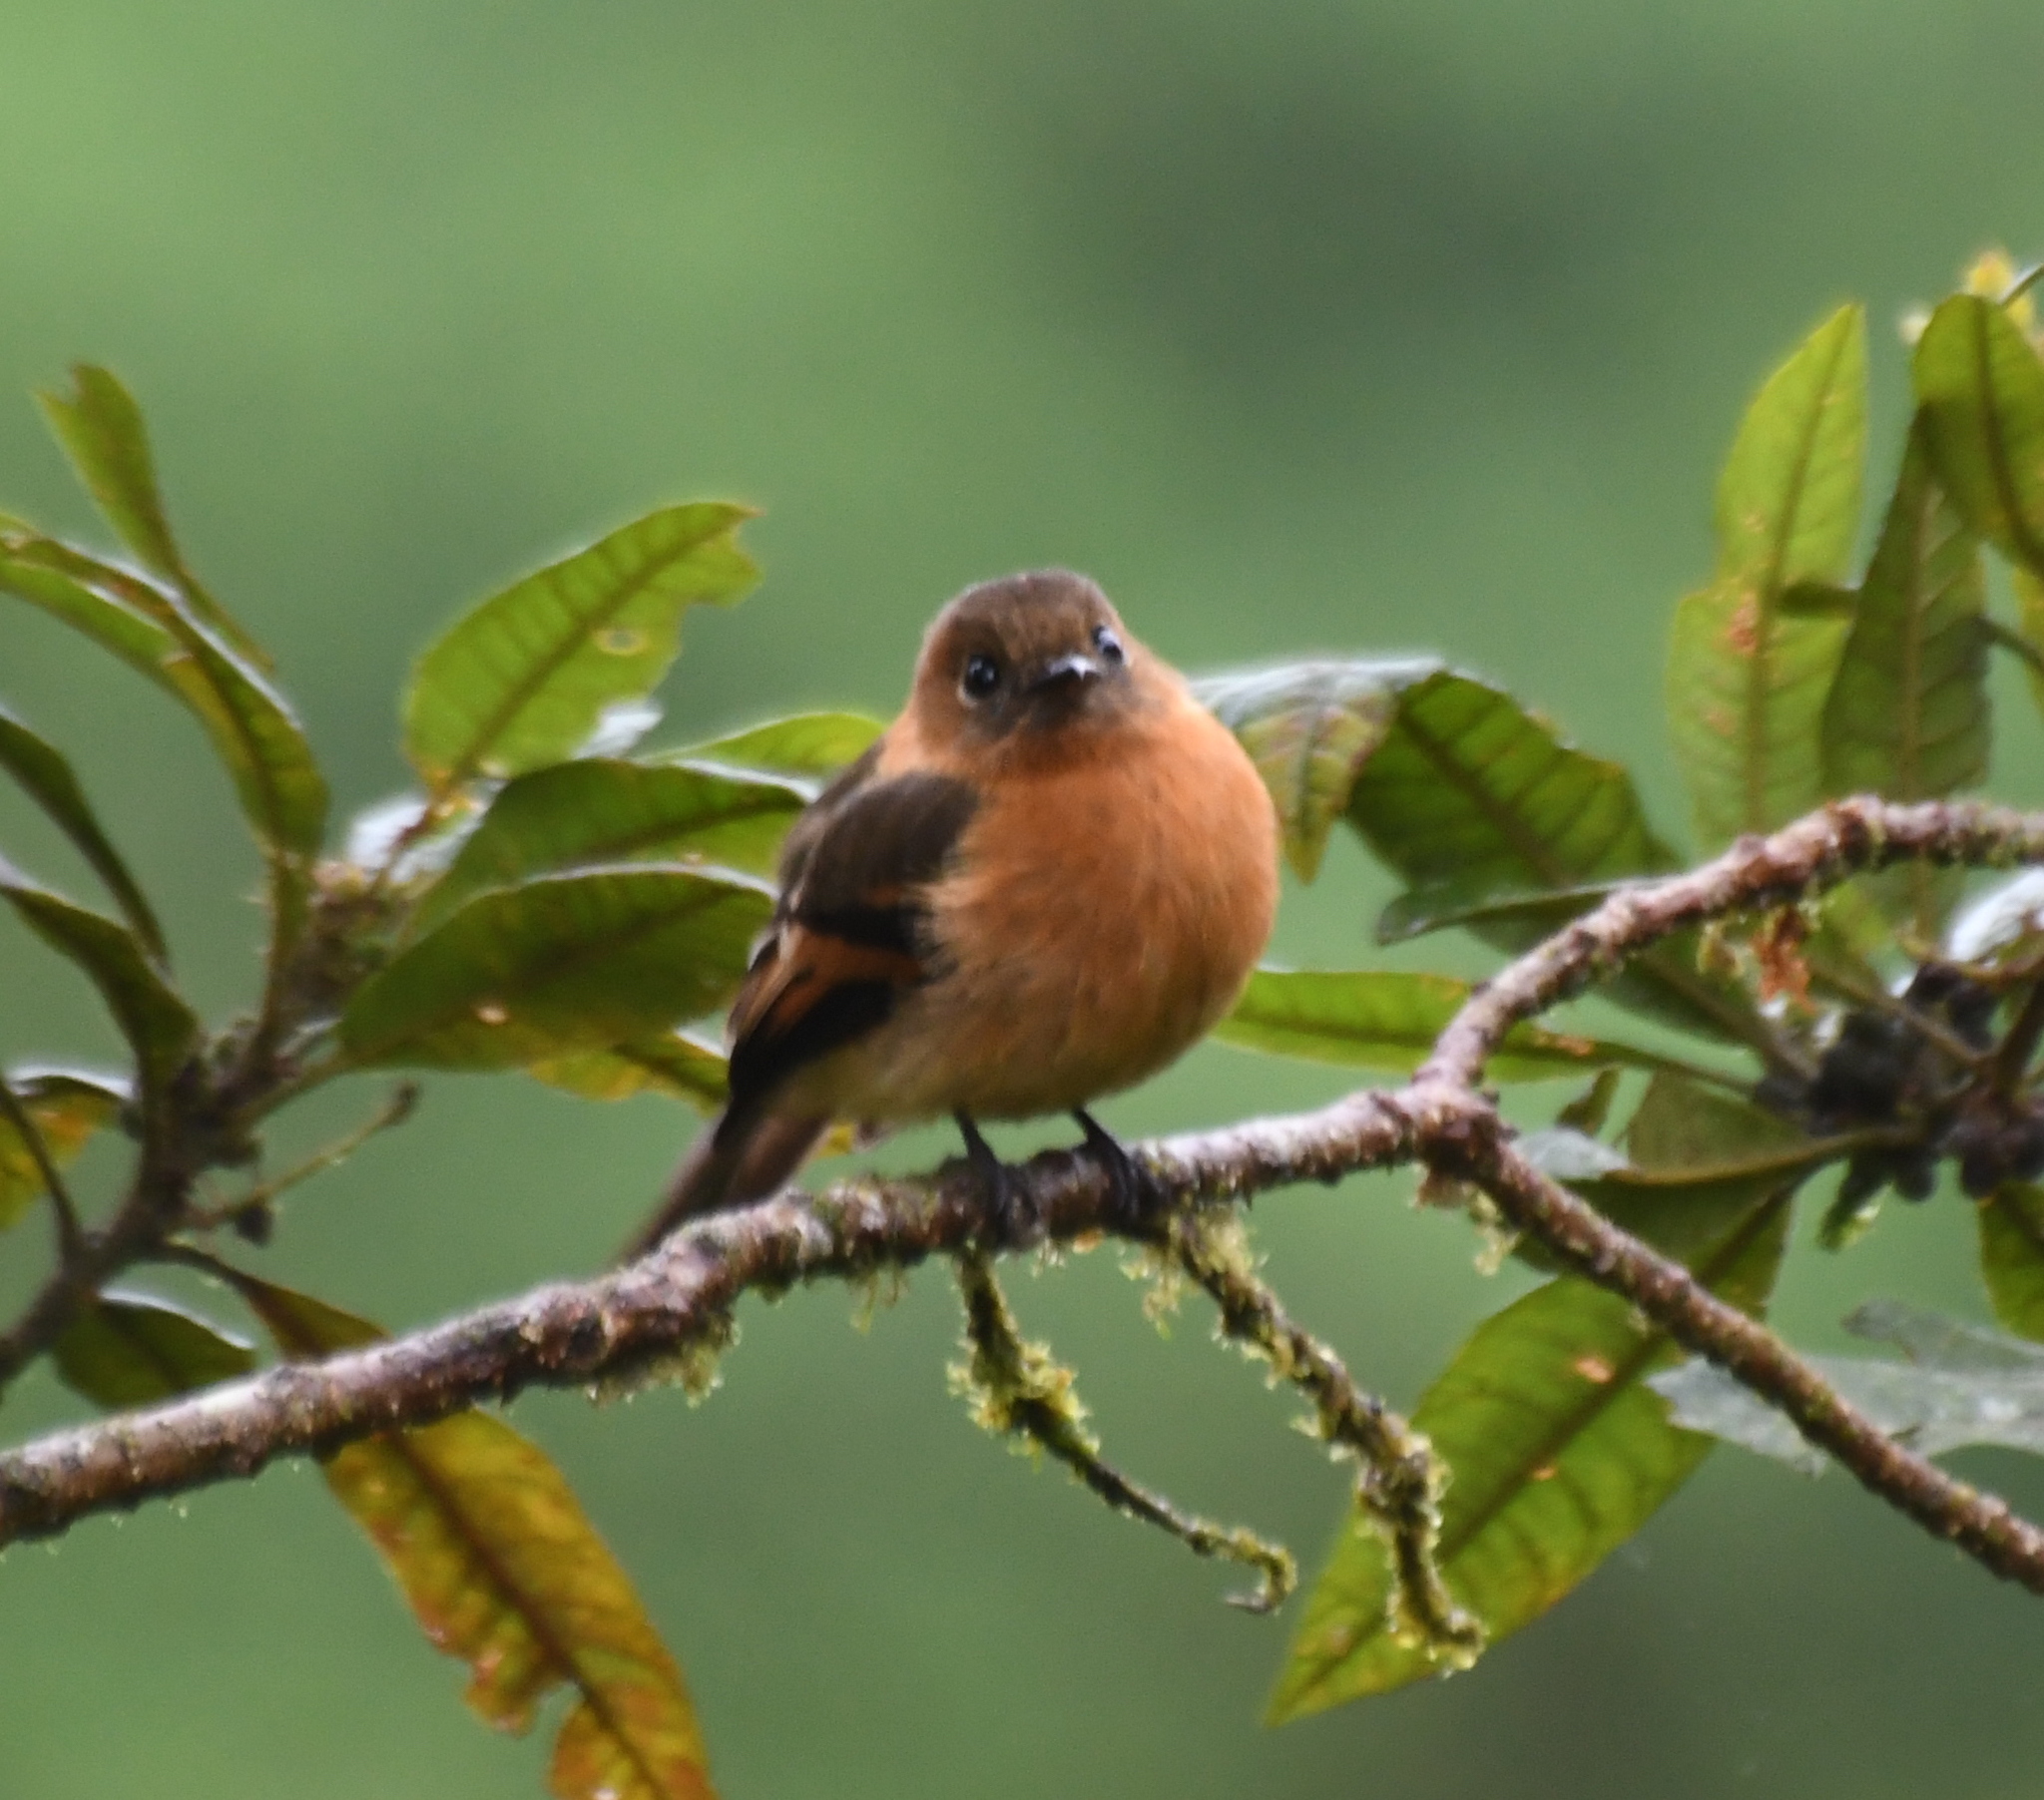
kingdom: Animalia
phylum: Chordata
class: Aves
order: Passeriformes
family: Tyrannidae
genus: Pyrrhomyias
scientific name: Pyrrhomyias cinnamomeus
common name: Cinnamon flycatcher
